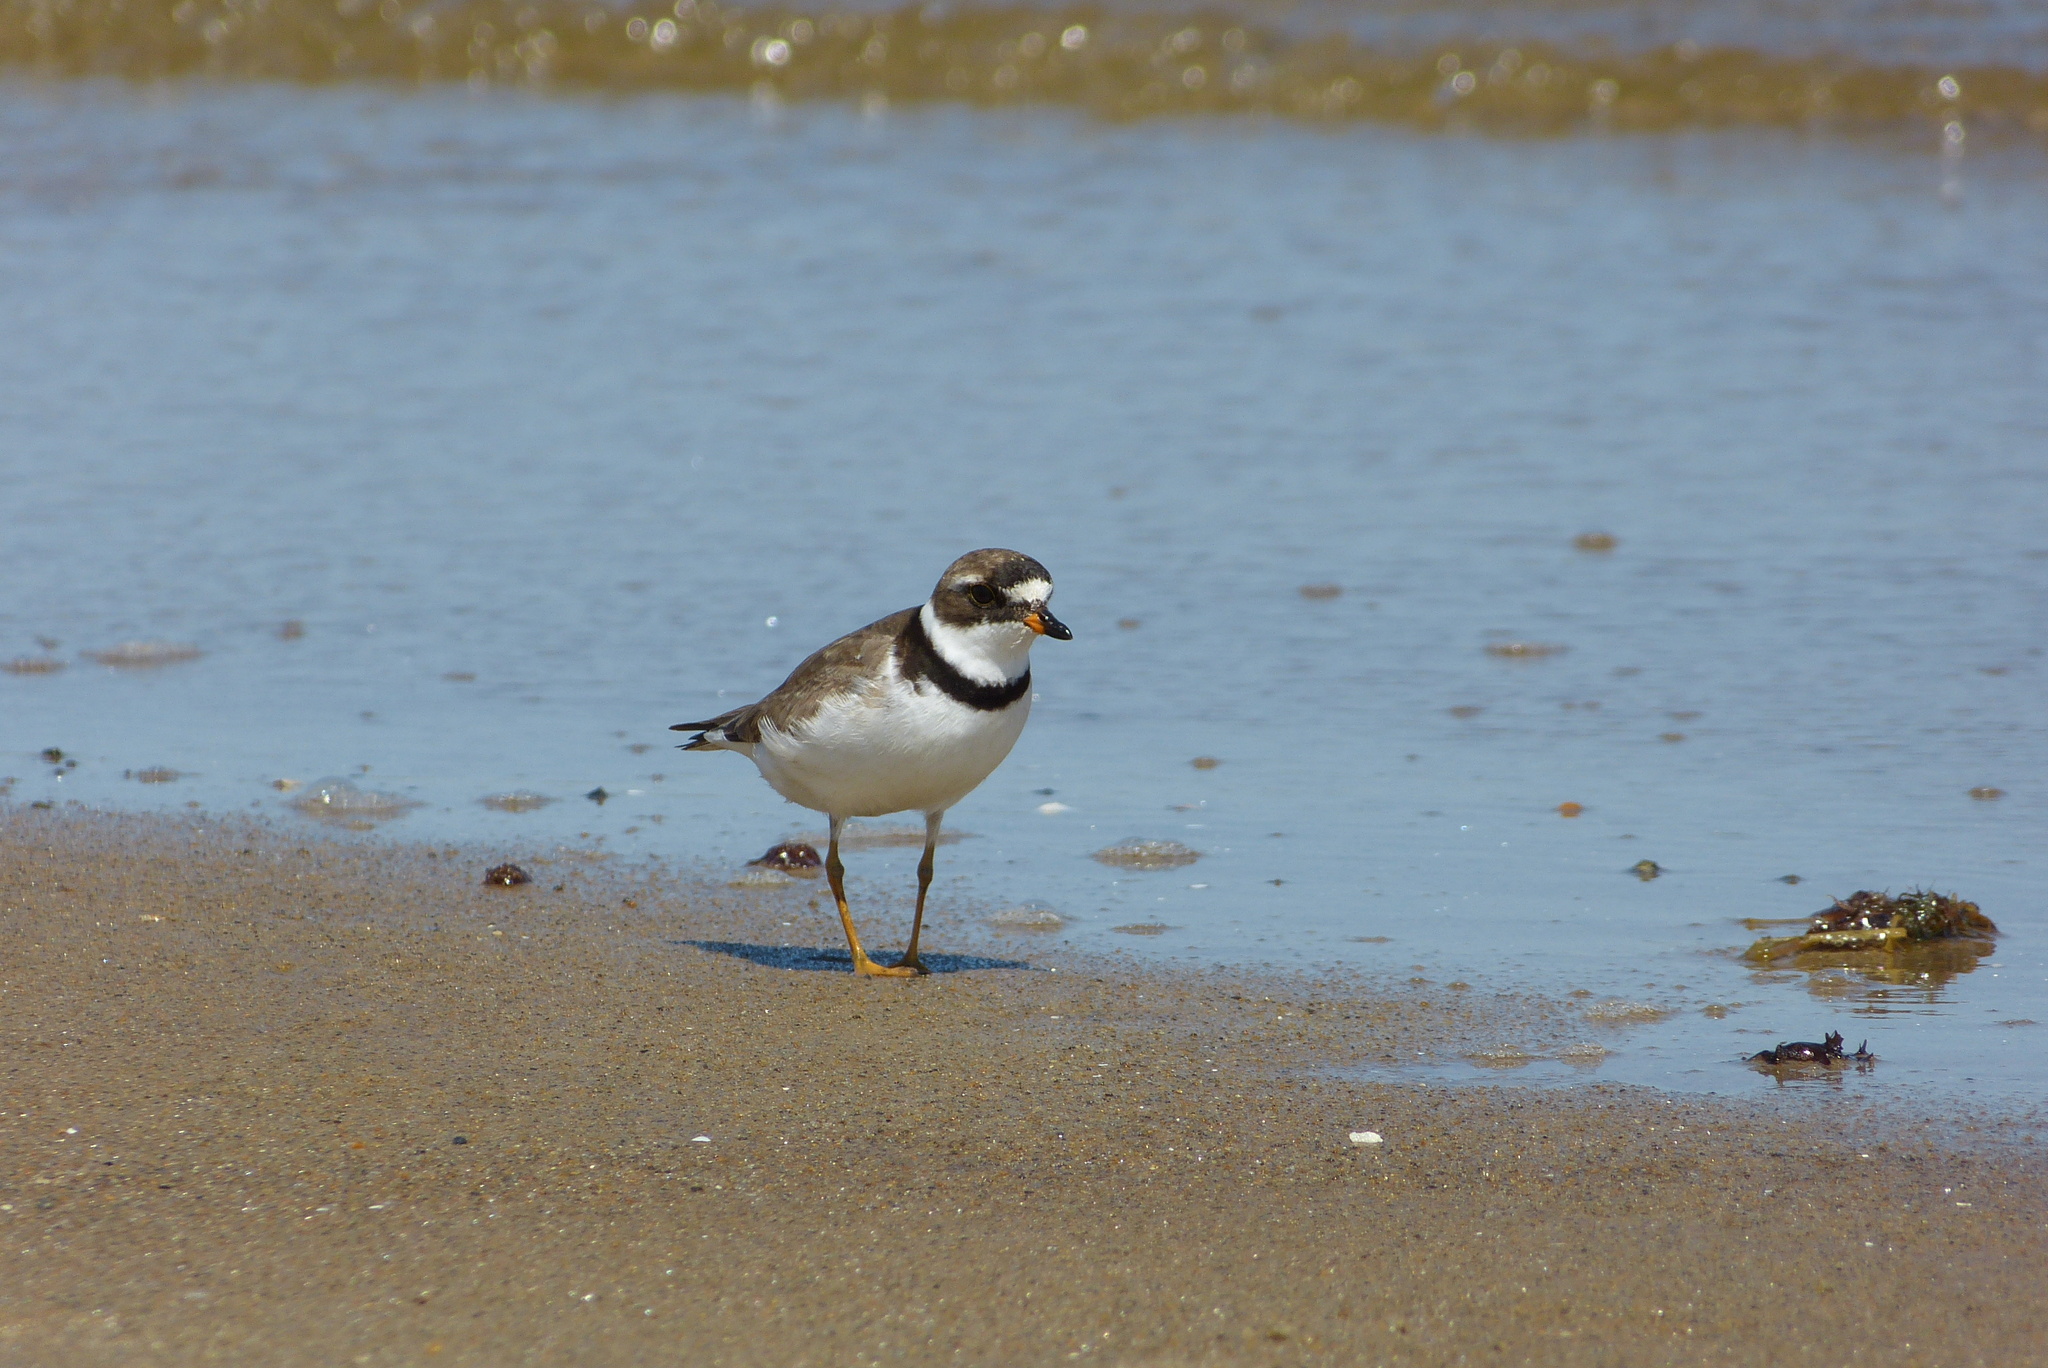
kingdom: Animalia
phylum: Chordata
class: Aves
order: Charadriiformes
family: Charadriidae
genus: Charadrius
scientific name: Charadrius hiaticula
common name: Common ringed plover
